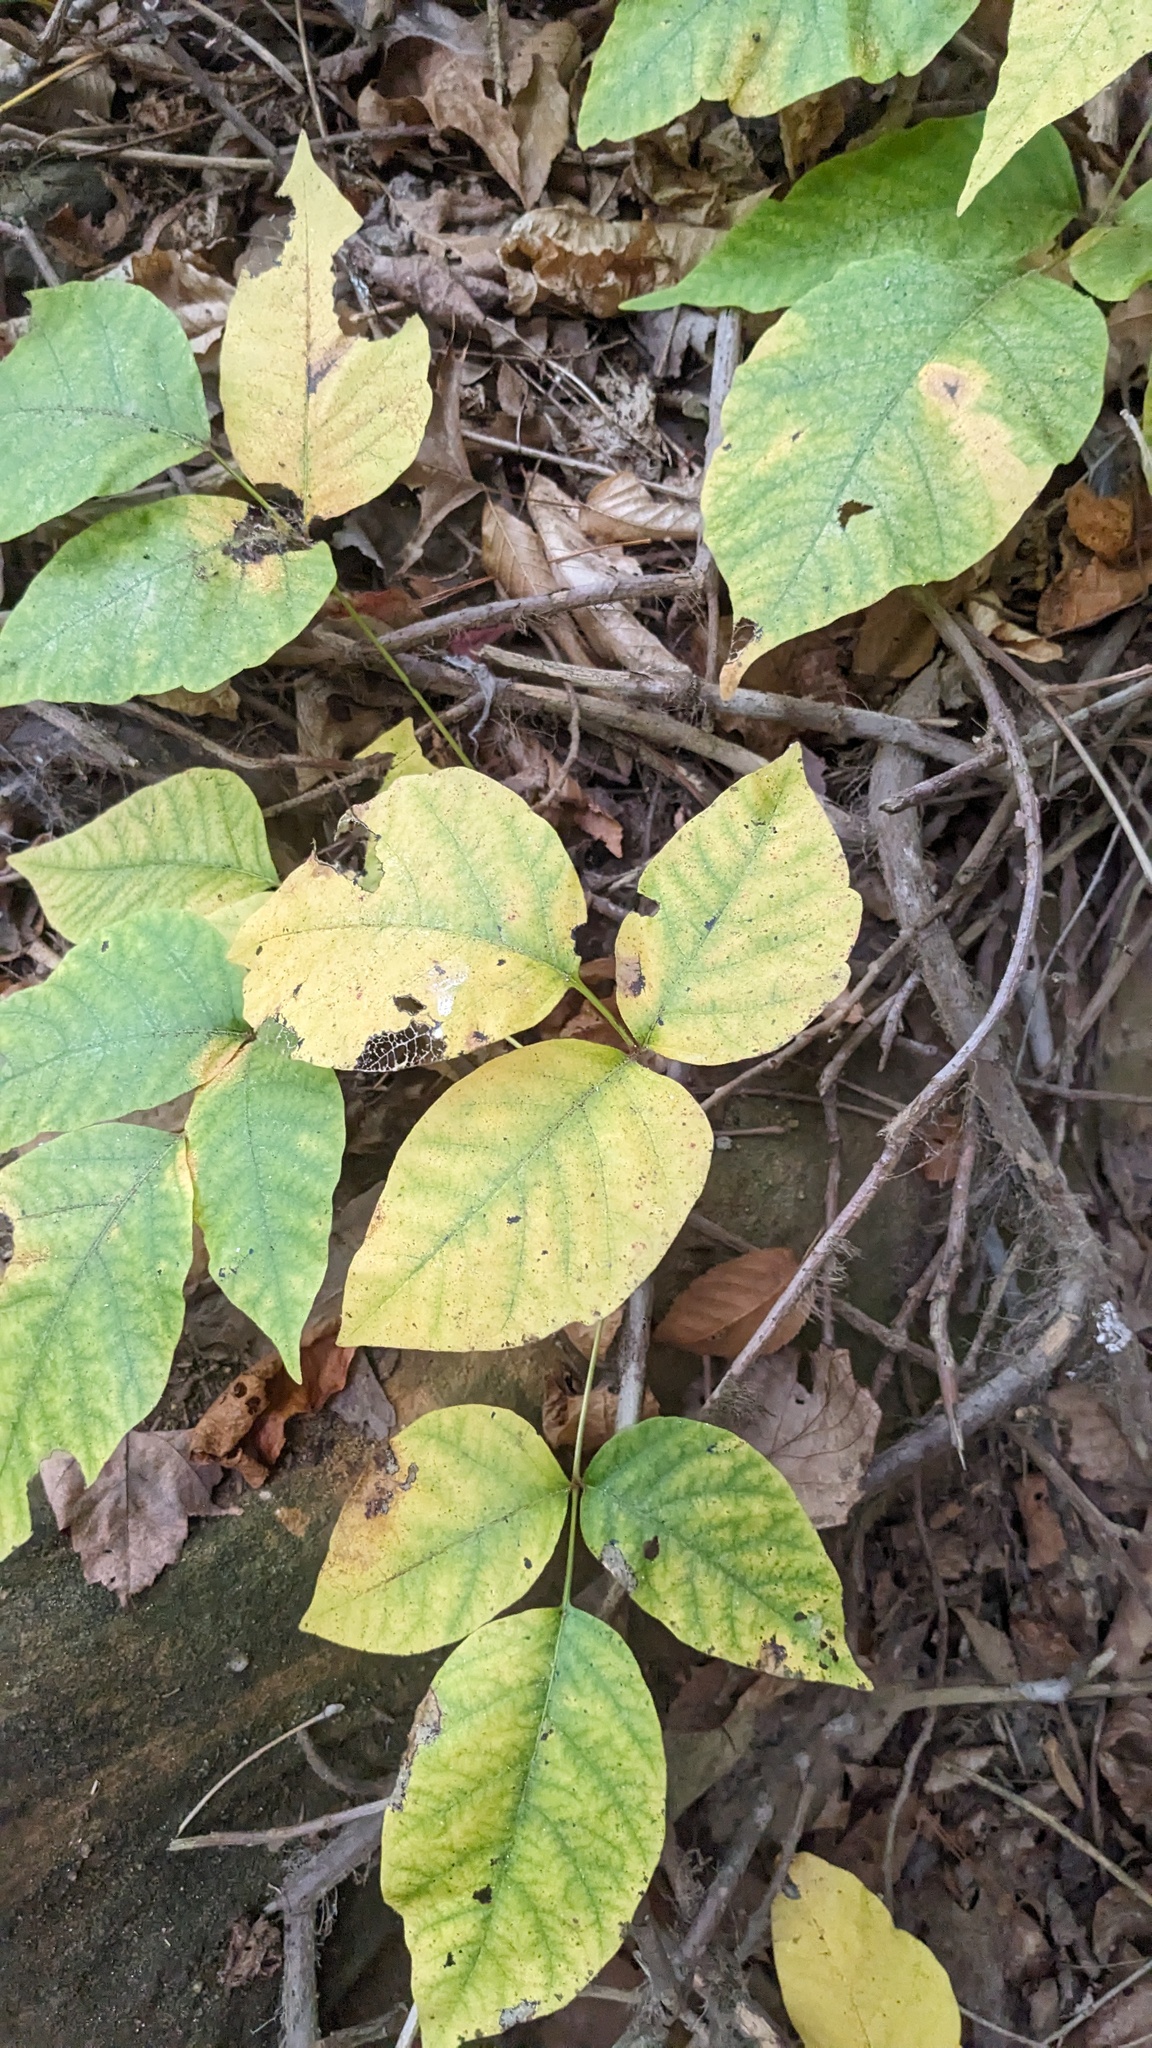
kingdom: Plantae
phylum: Tracheophyta
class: Magnoliopsida
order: Sapindales
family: Anacardiaceae
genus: Toxicodendron
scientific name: Toxicodendron radicans
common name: Poison ivy
